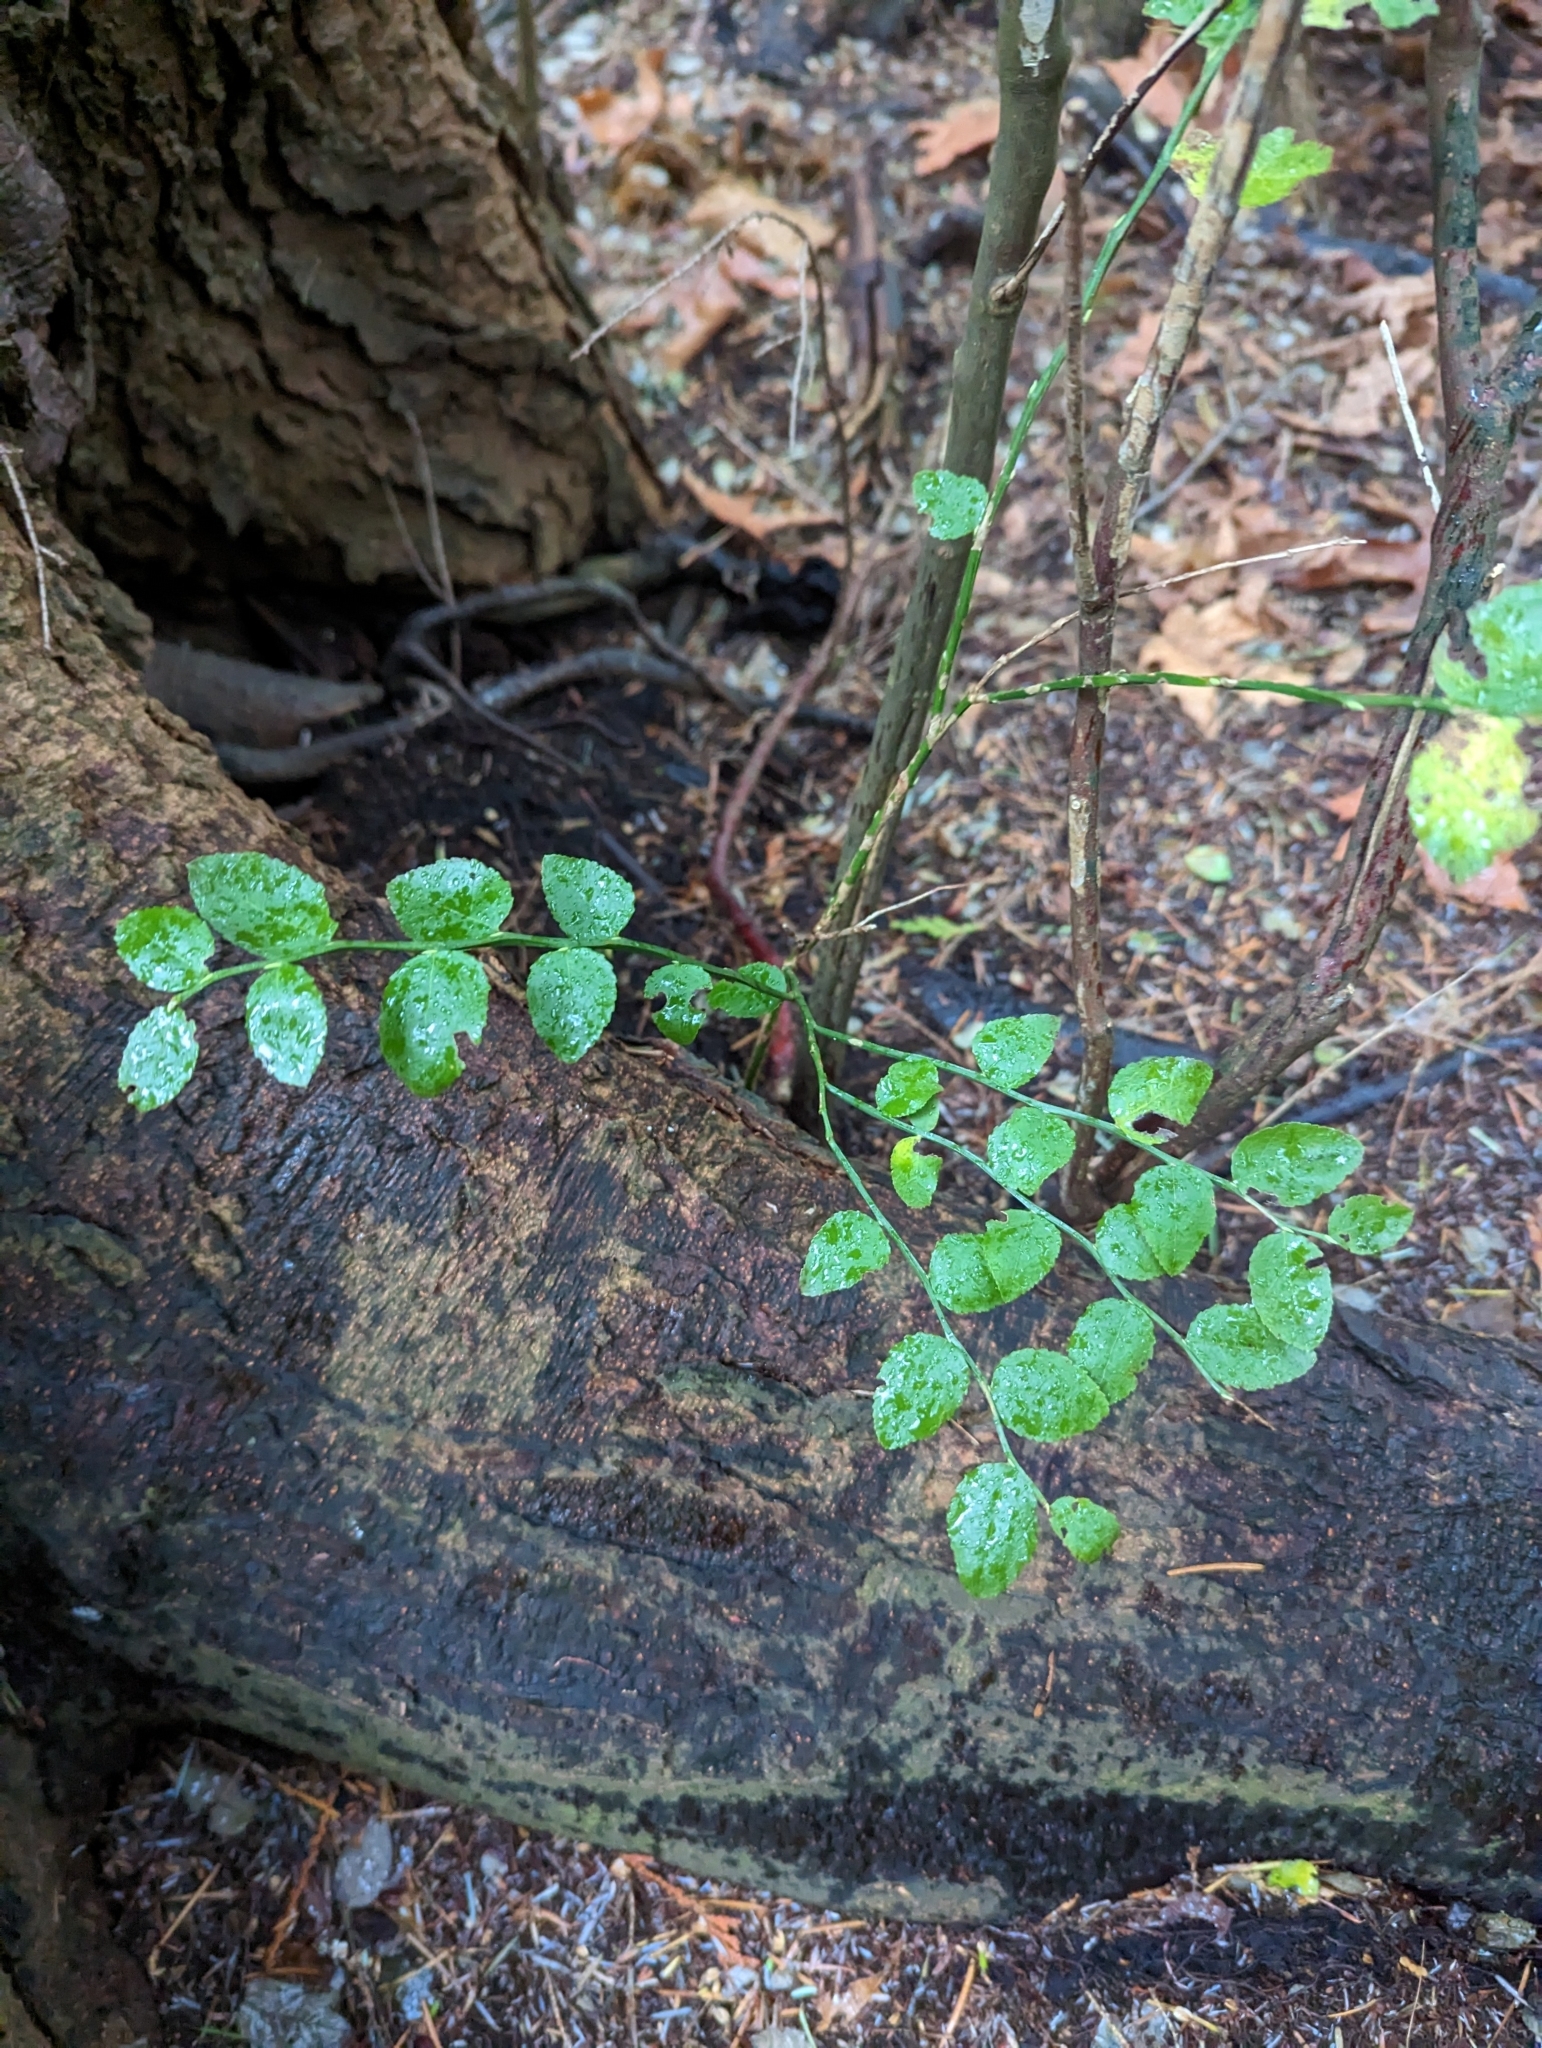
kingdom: Plantae
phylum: Tracheophyta
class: Magnoliopsida
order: Ericales
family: Ericaceae
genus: Vaccinium
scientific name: Vaccinium parvifolium
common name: Red-huckleberry
